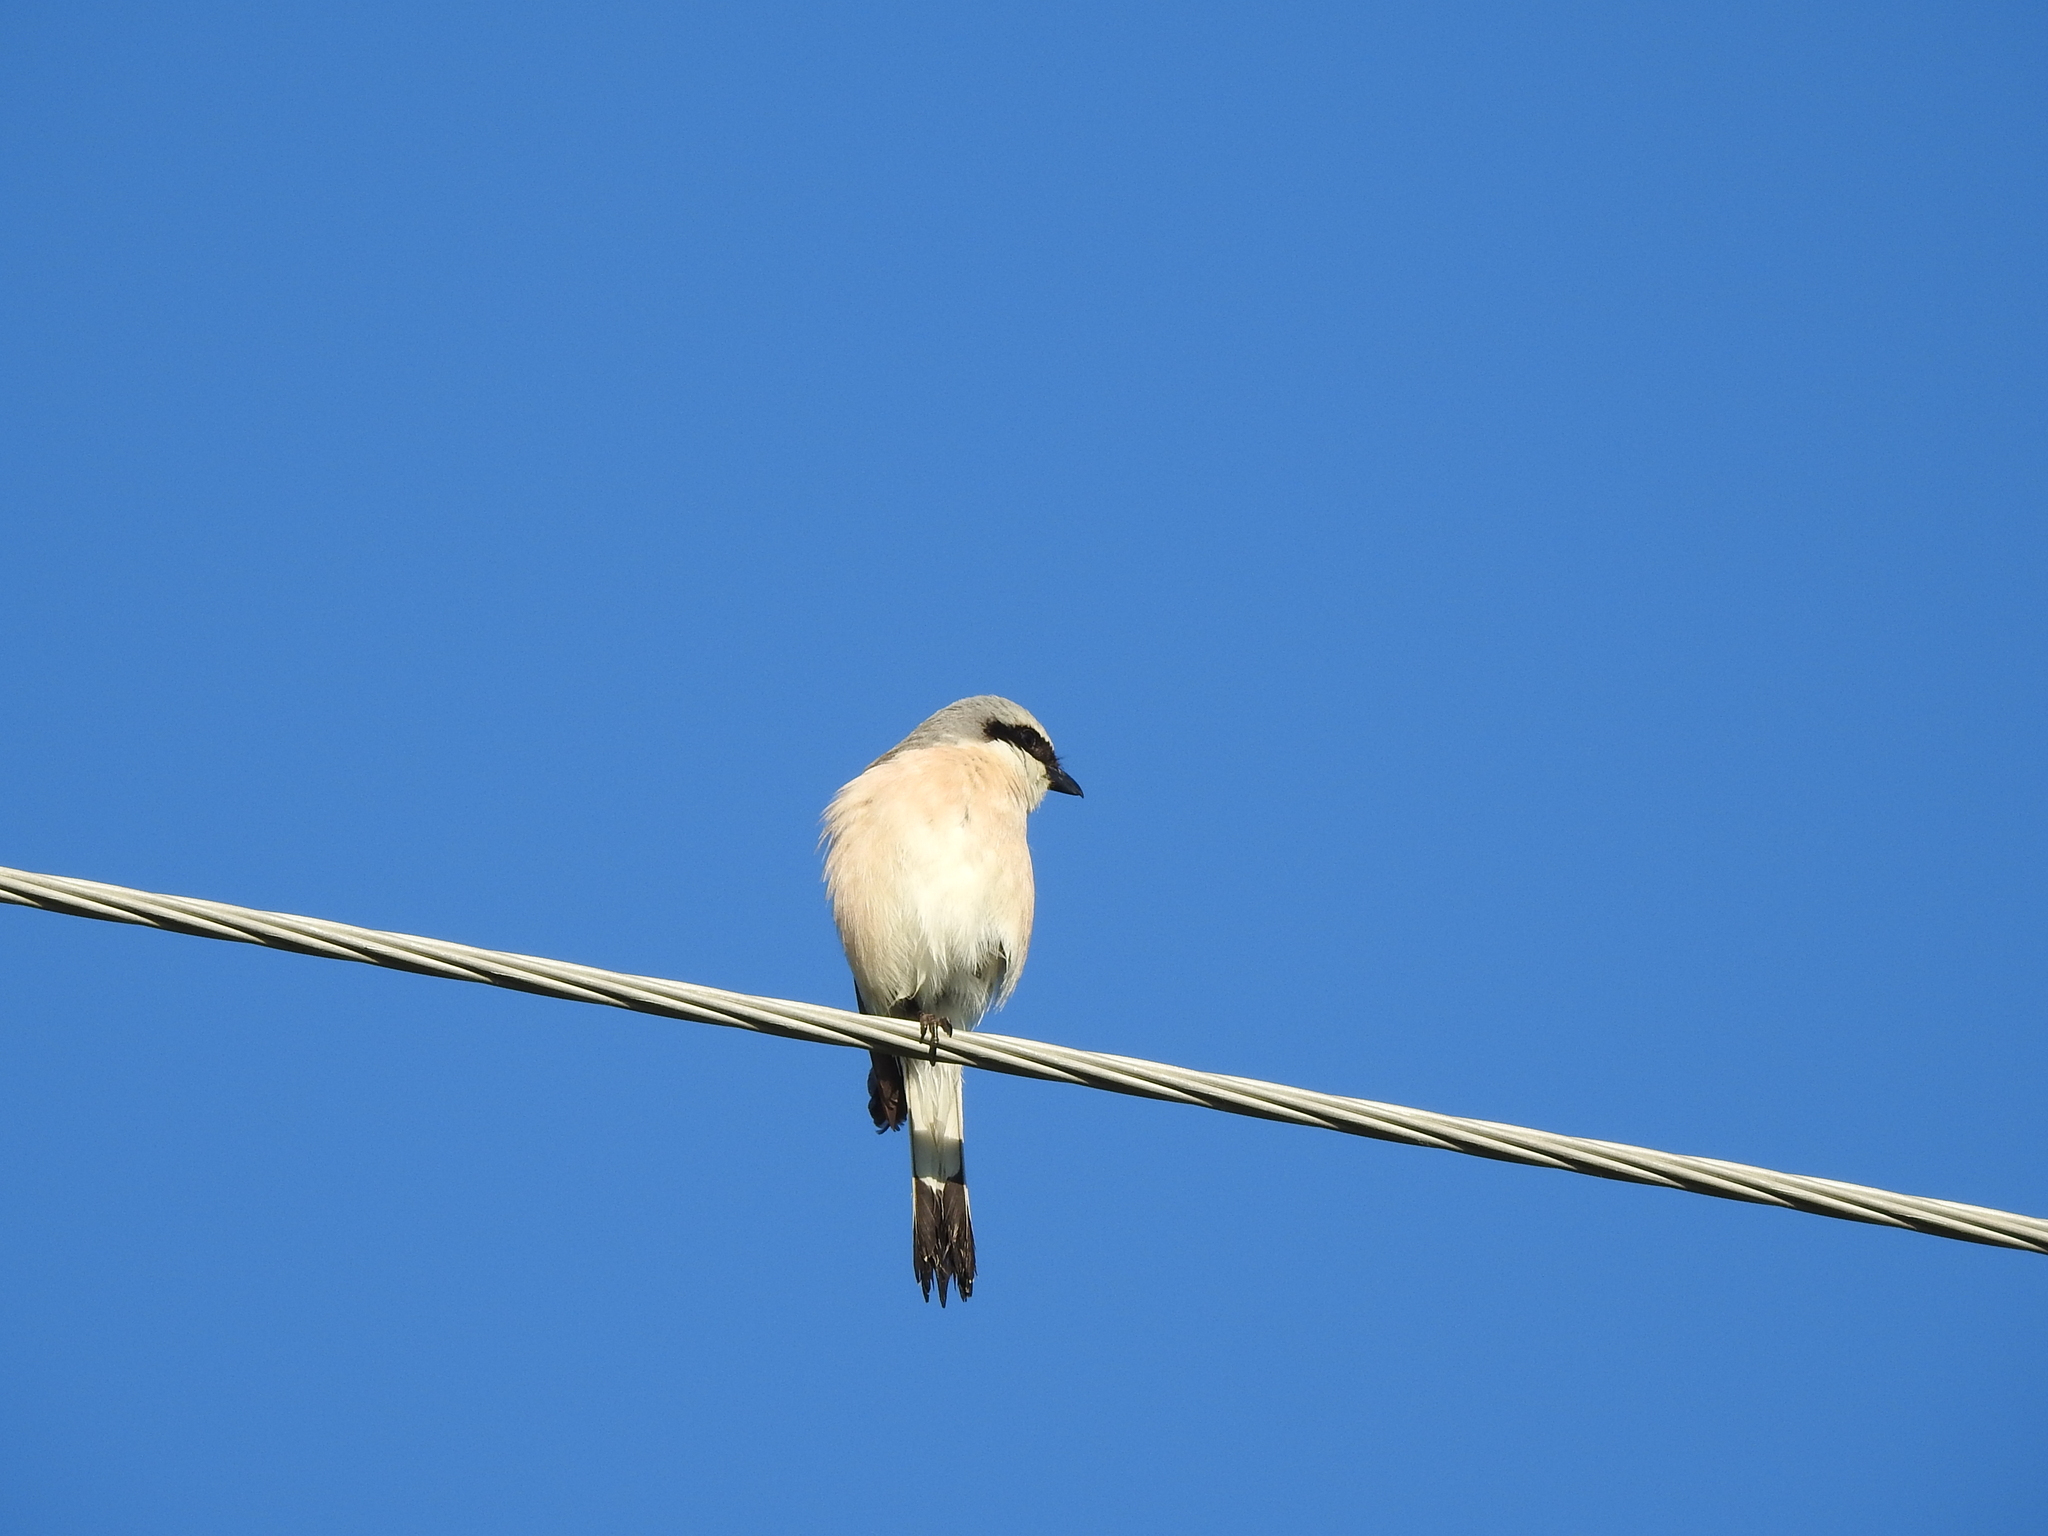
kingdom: Animalia
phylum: Chordata
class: Aves
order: Passeriformes
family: Laniidae
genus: Lanius
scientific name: Lanius collurio
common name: Red-backed shrike
